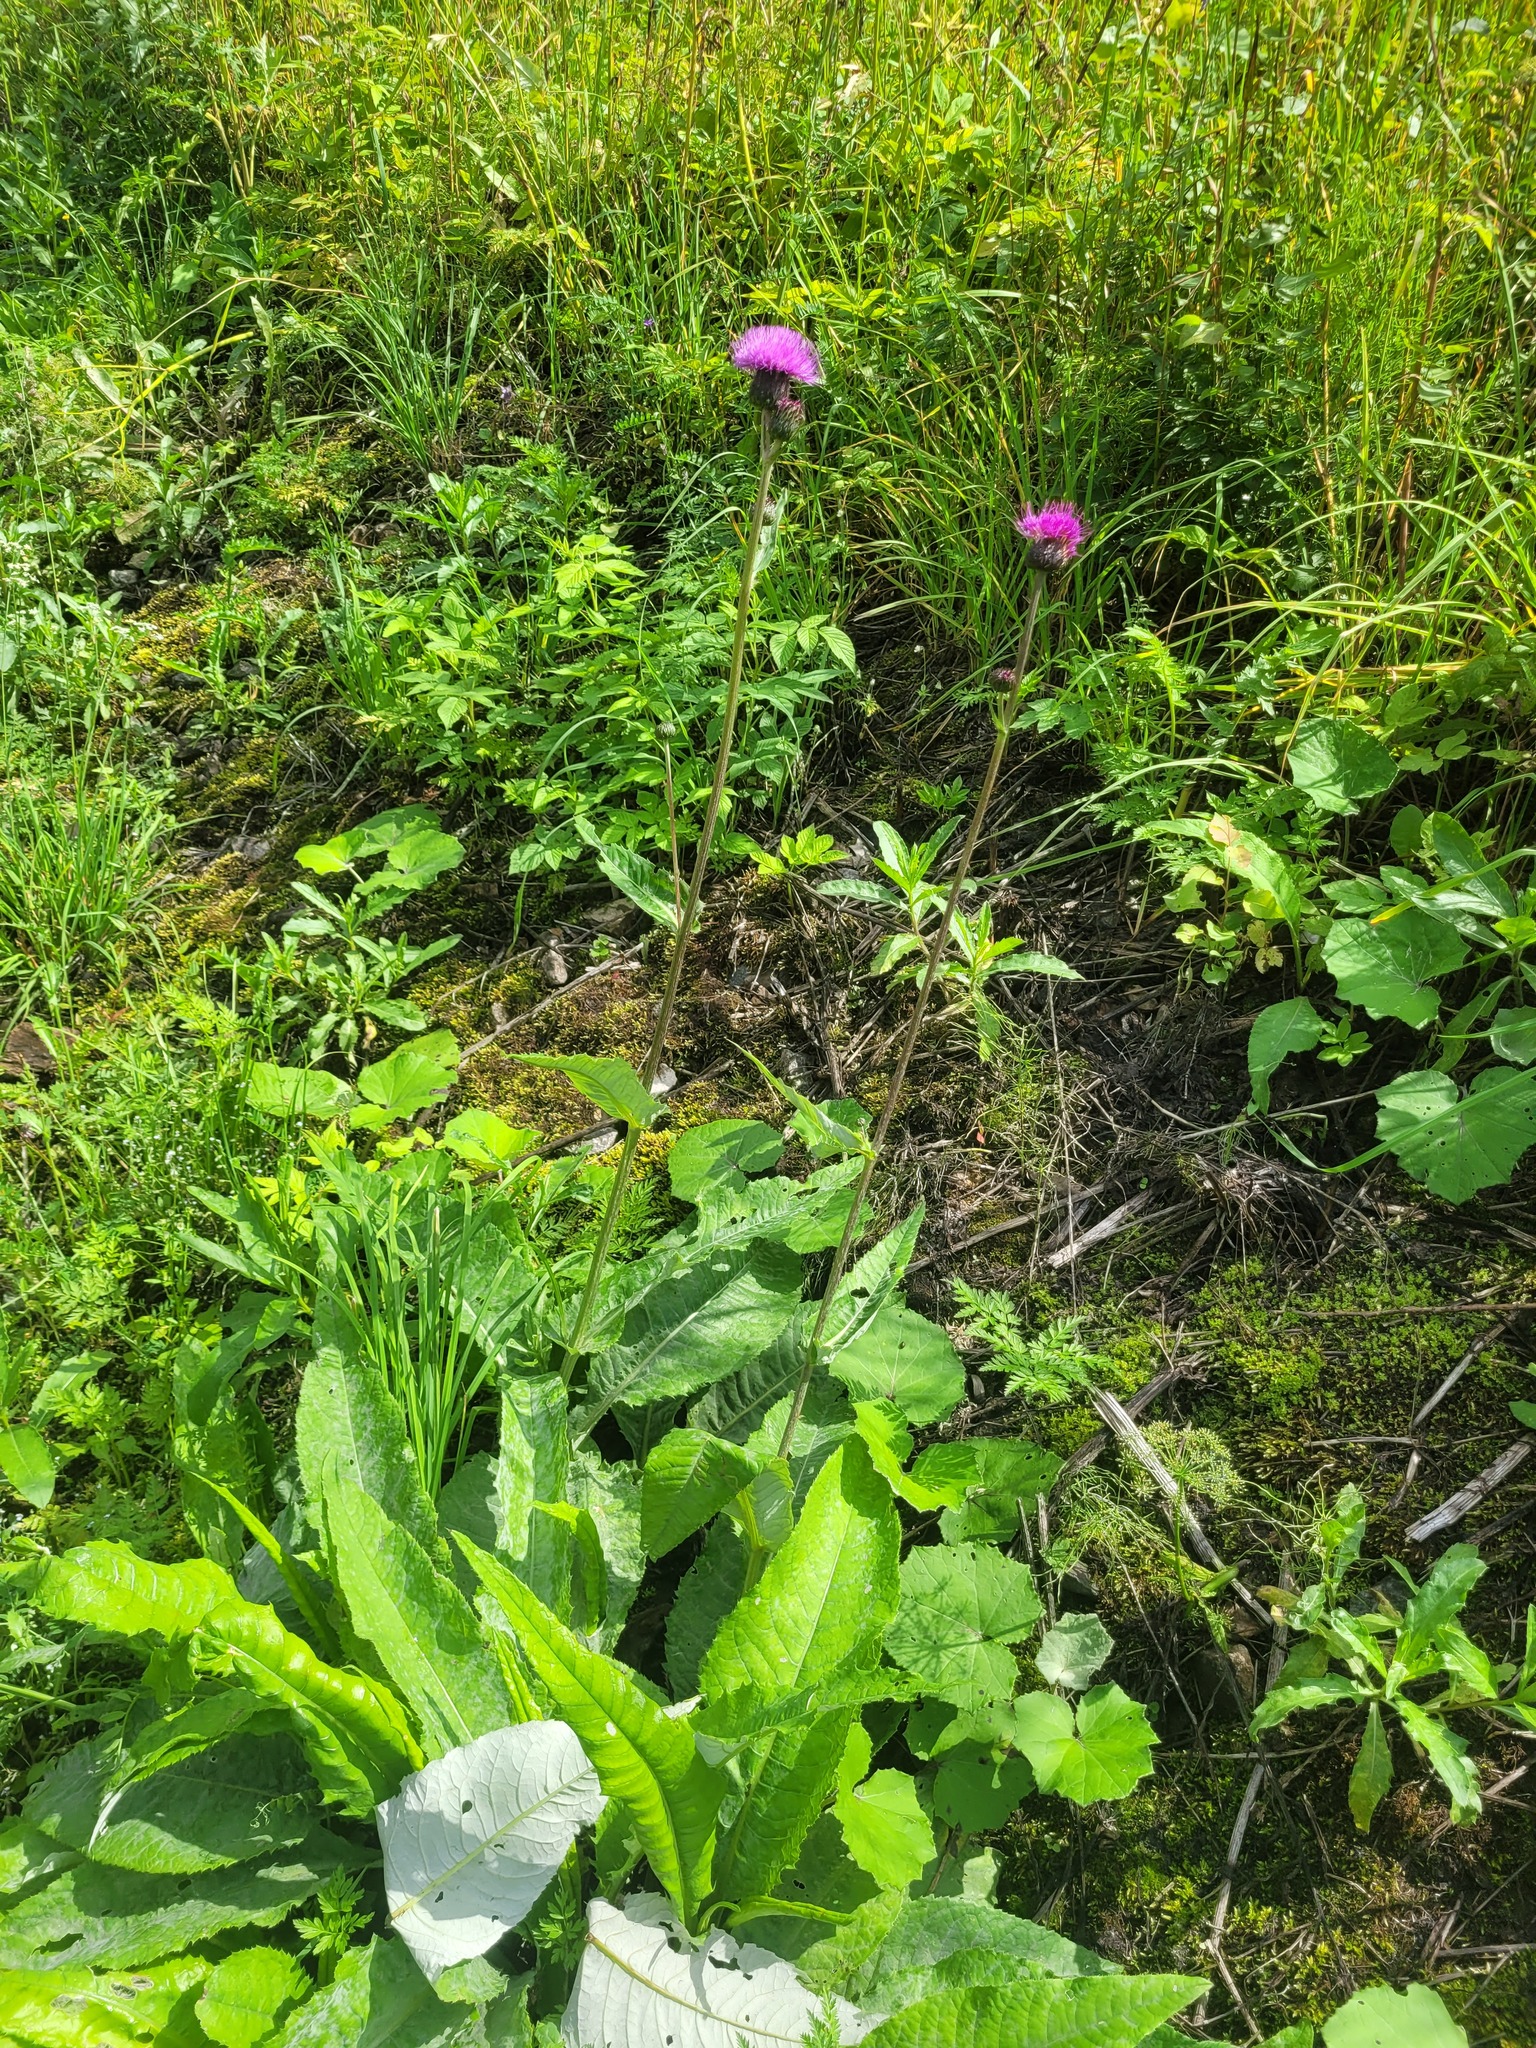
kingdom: Plantae
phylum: Tracheophyta
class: Magnoliopsida
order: Asterales
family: Asteraceae
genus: Cirsium
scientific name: Cirsium heterophyllum
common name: Melancholy thistle
